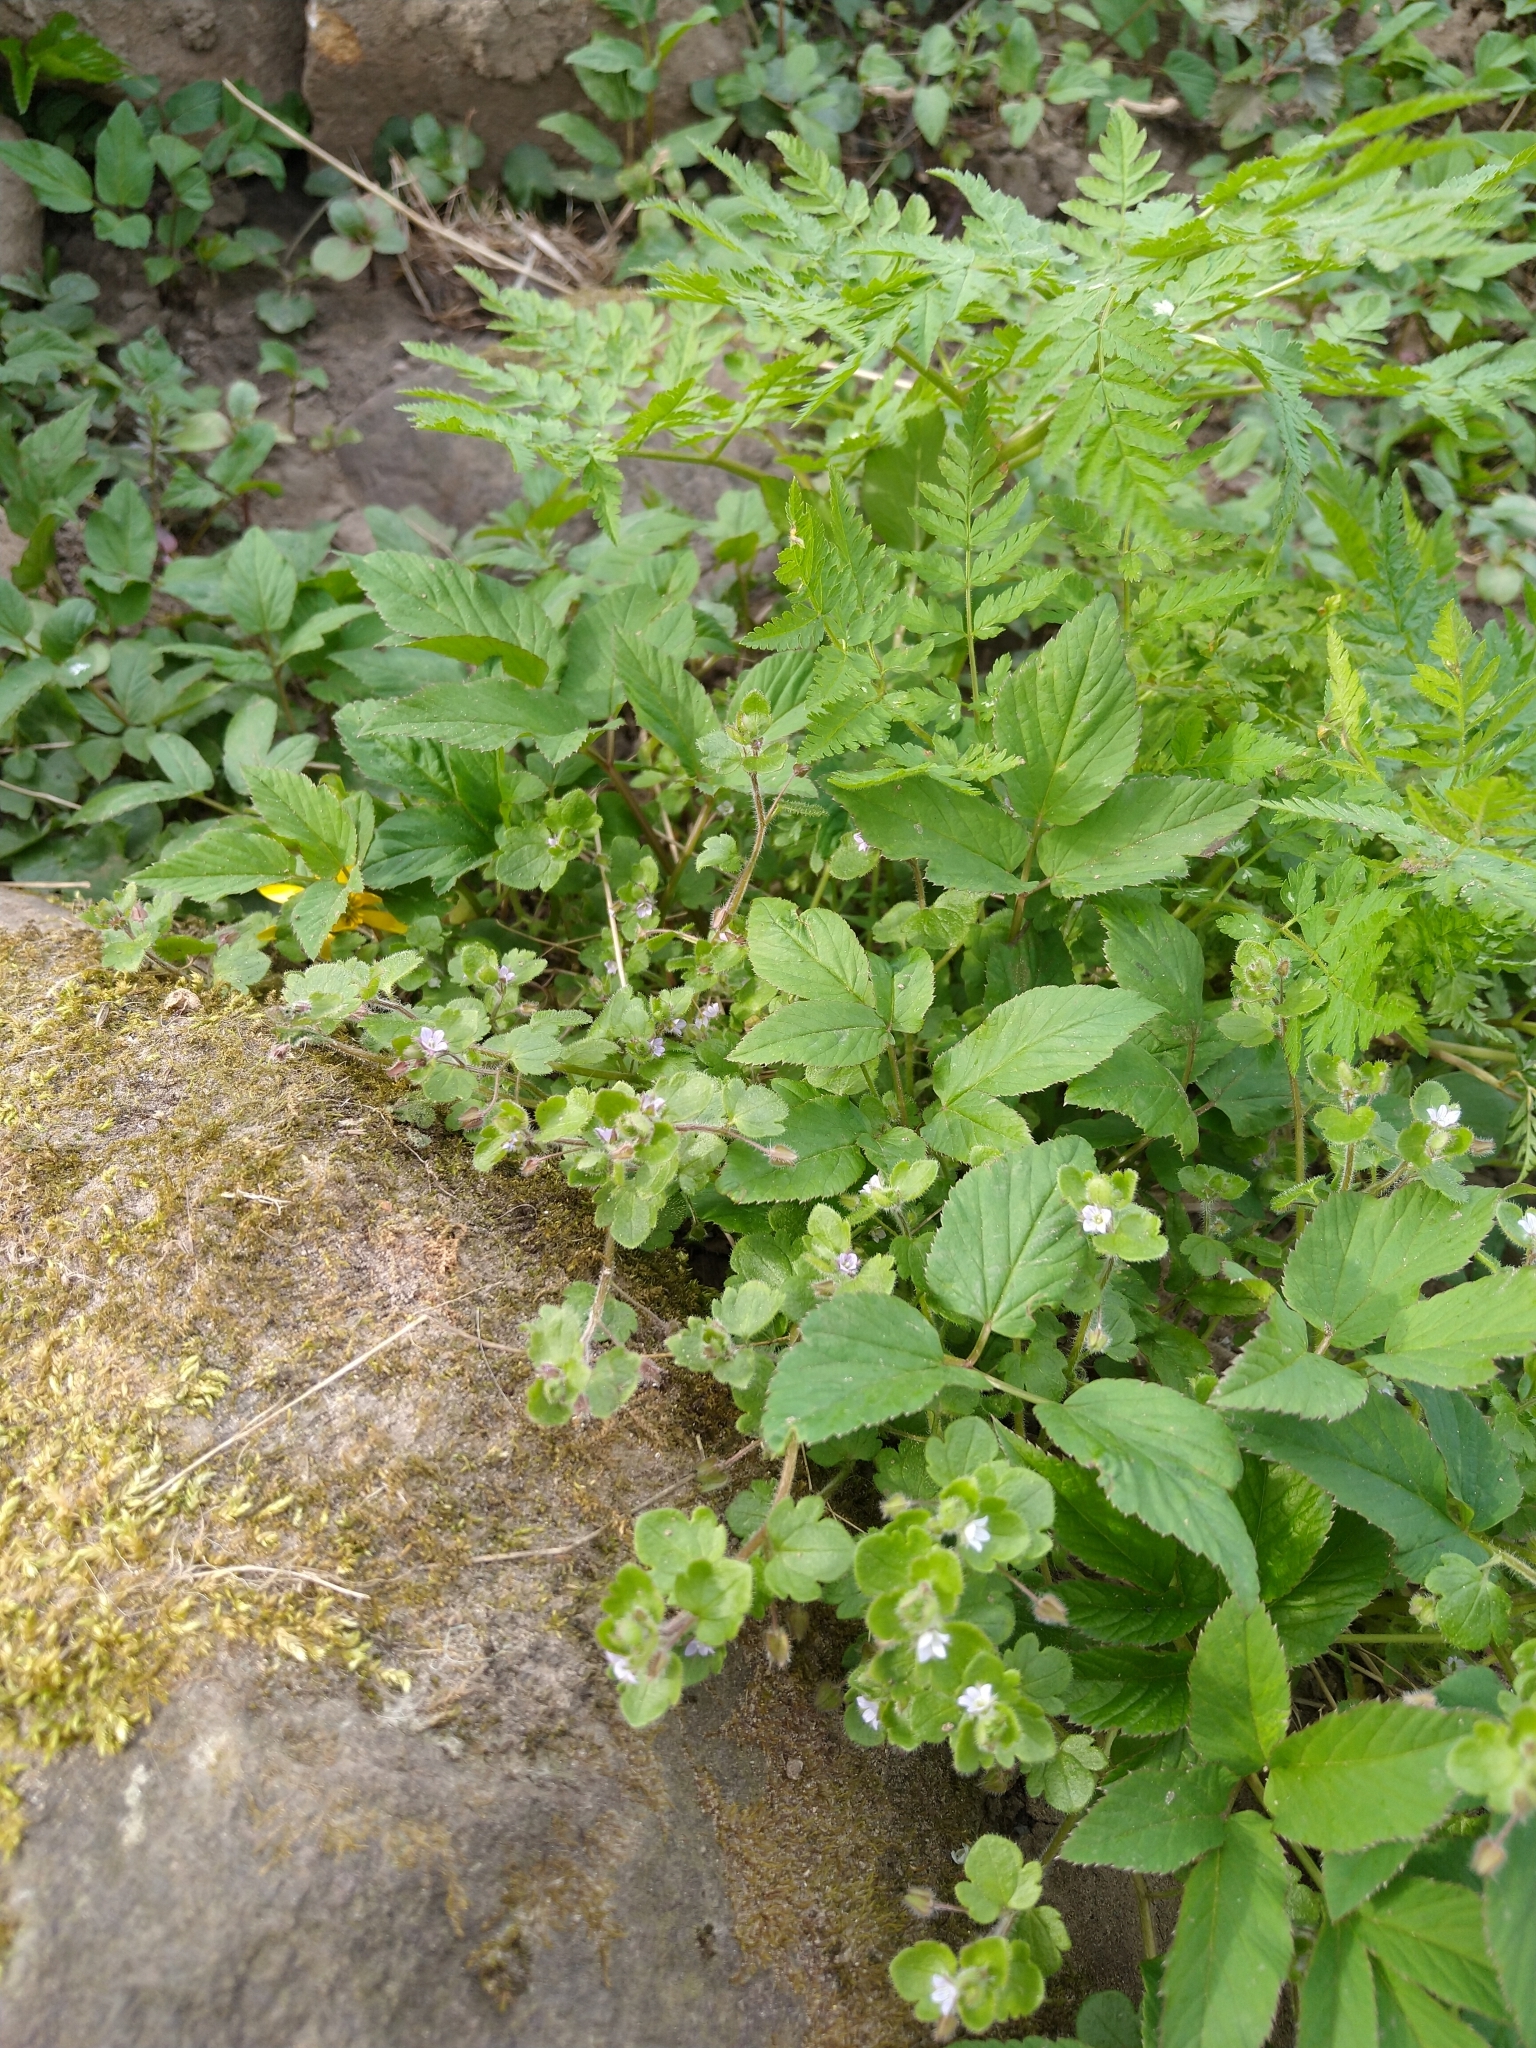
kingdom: Plantae
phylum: Tracheophyta
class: Magnoliopsida
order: Lamiales
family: Plantaginaceae
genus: Veronica
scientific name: Veronica sublobata
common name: False ivy-leaved speedwell
